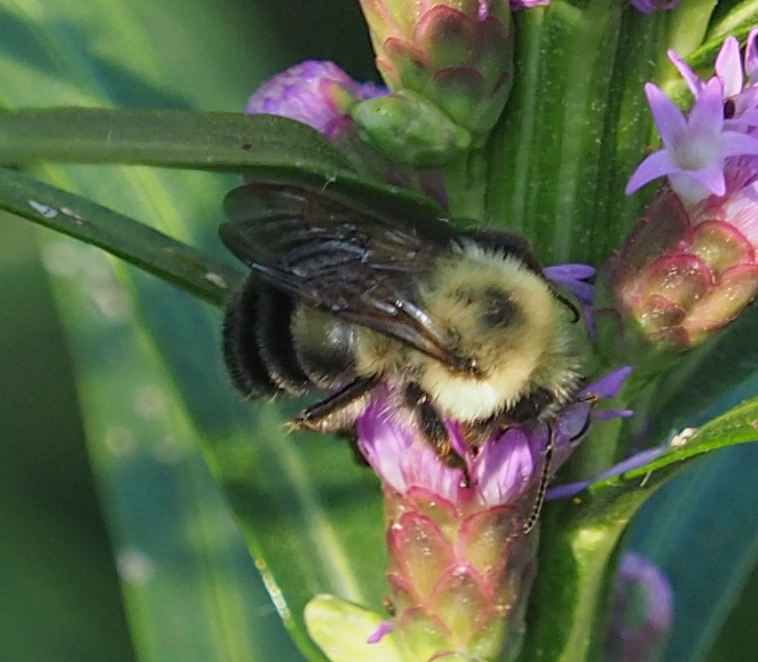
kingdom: Animalia
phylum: Arthropoda
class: Insecta
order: Hymenoptera
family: Apidae
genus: Bombus
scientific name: Bombus bimaculatus
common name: Two-spotted bumble bee
